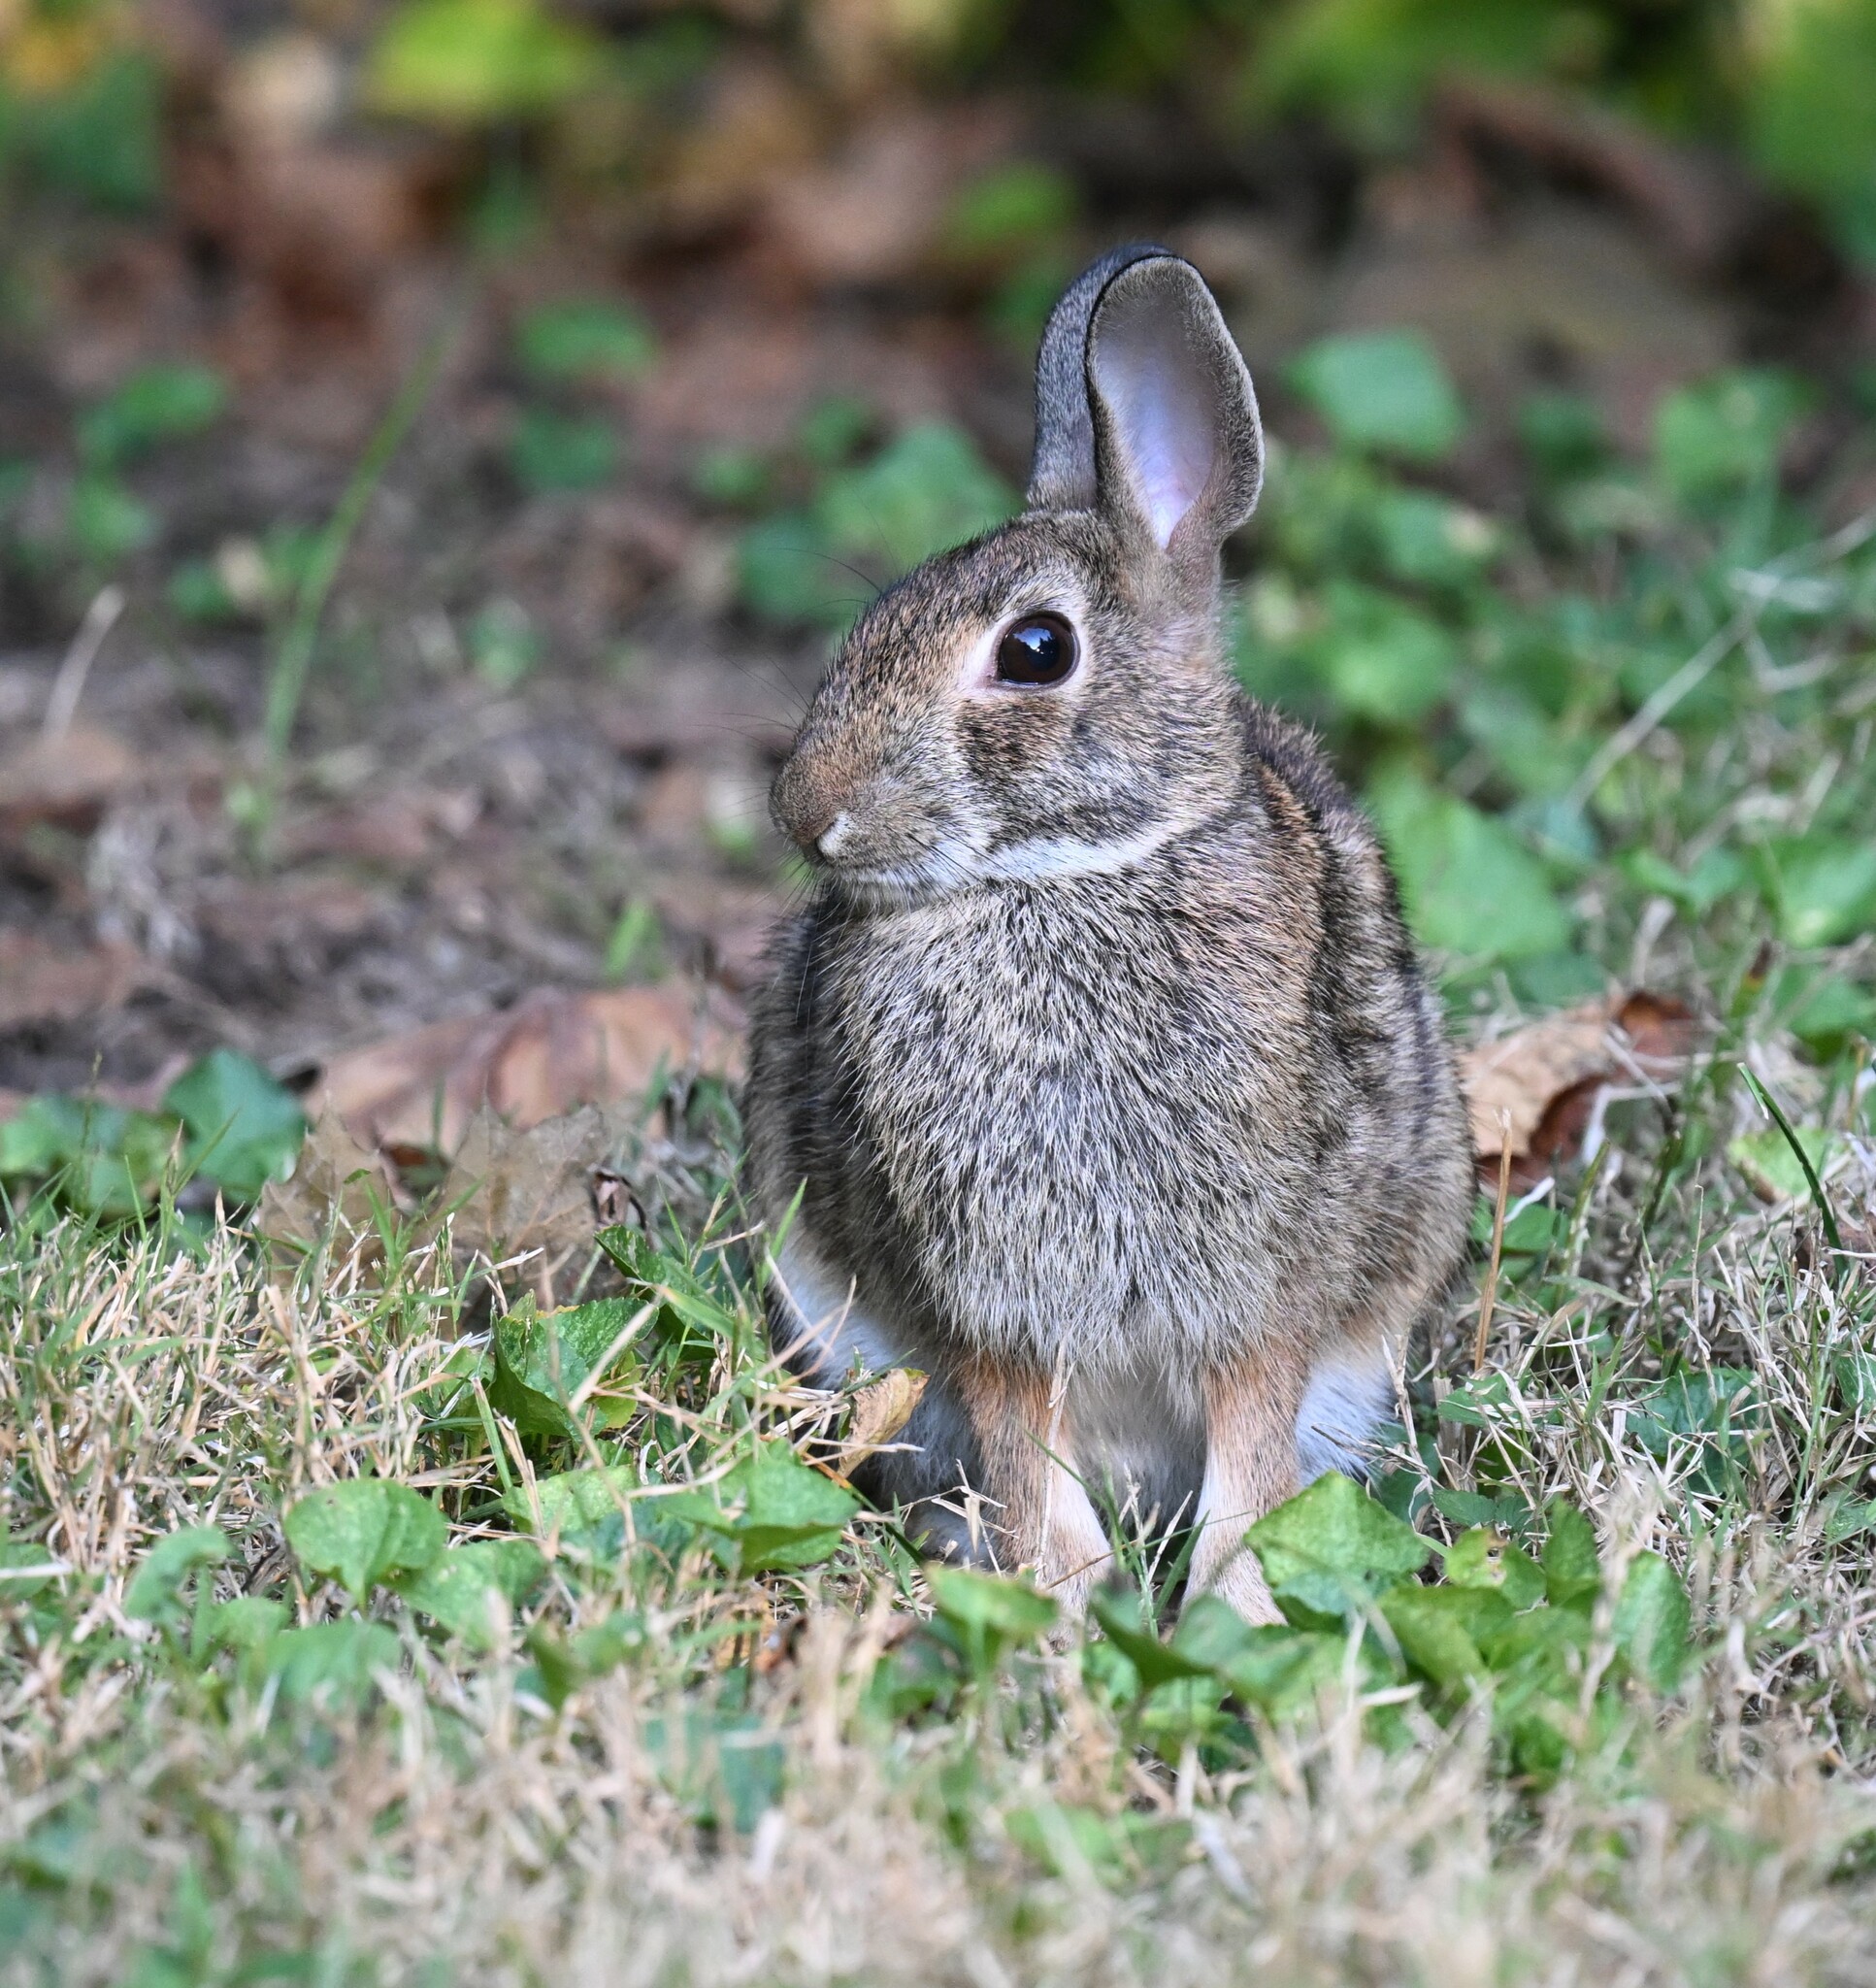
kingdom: Animalia
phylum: Chordata
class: Mammalia
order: Lagomorpha
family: Leporidae
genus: Sylvilagus
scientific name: Sylvilagus floridanus
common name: Eastern cottontail
